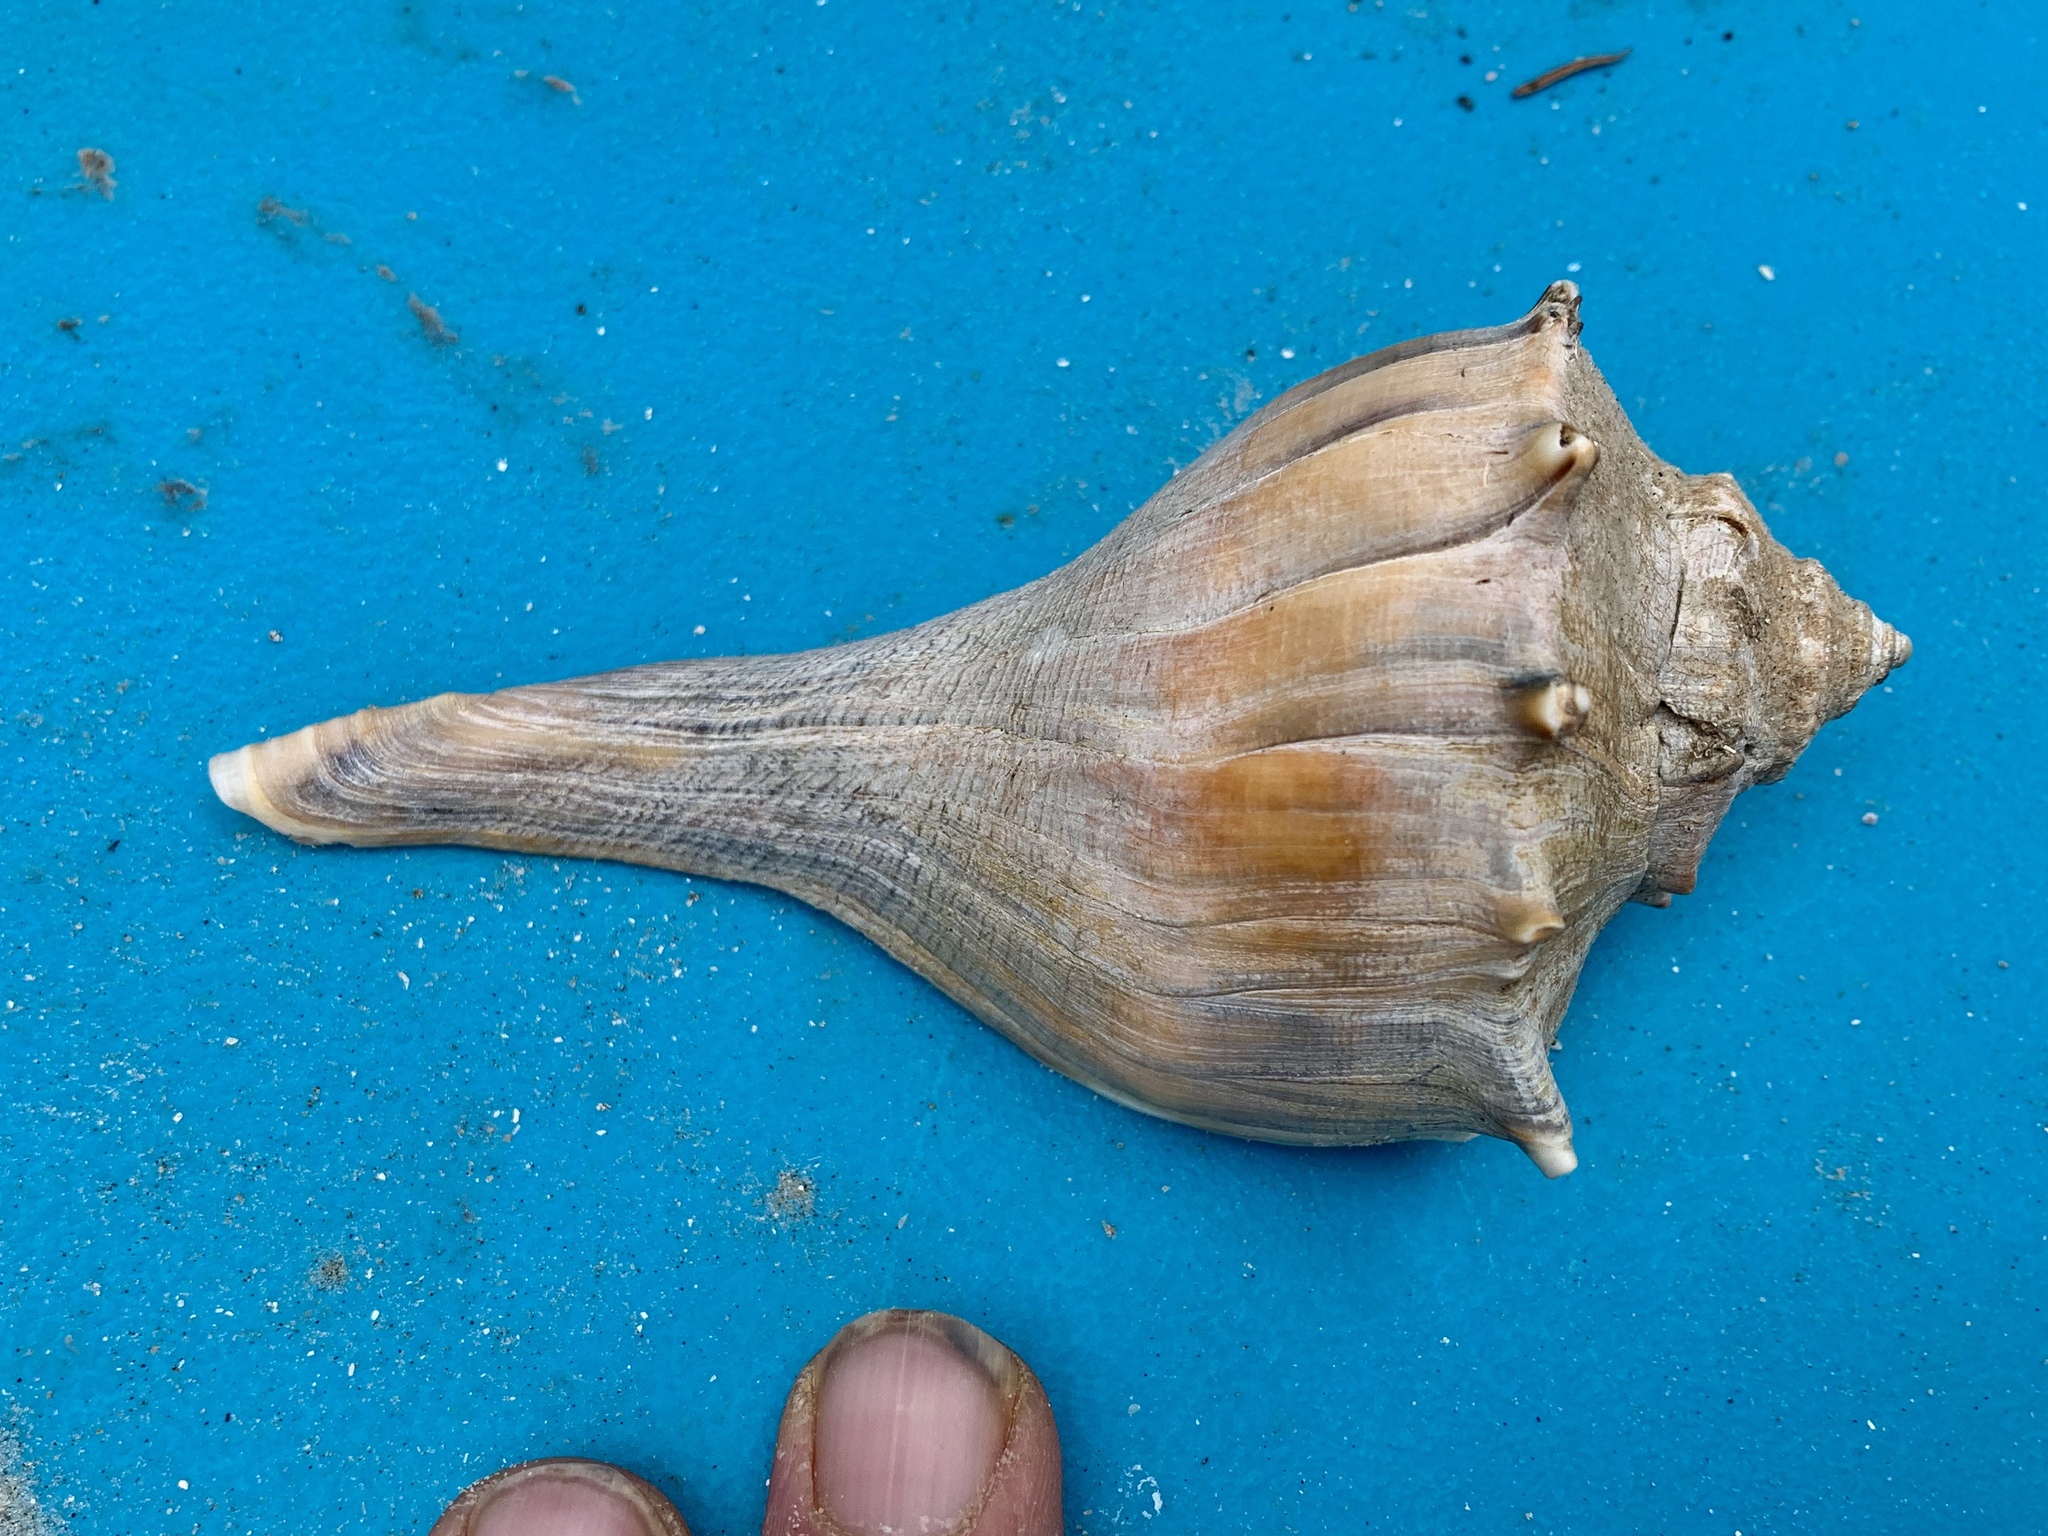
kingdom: Animalia
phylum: Mollusca
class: Gastropoda
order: Neogastropoda
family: Busyconidae
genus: Sinistrofulgur
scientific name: Sinistrofulgur pulleyi
